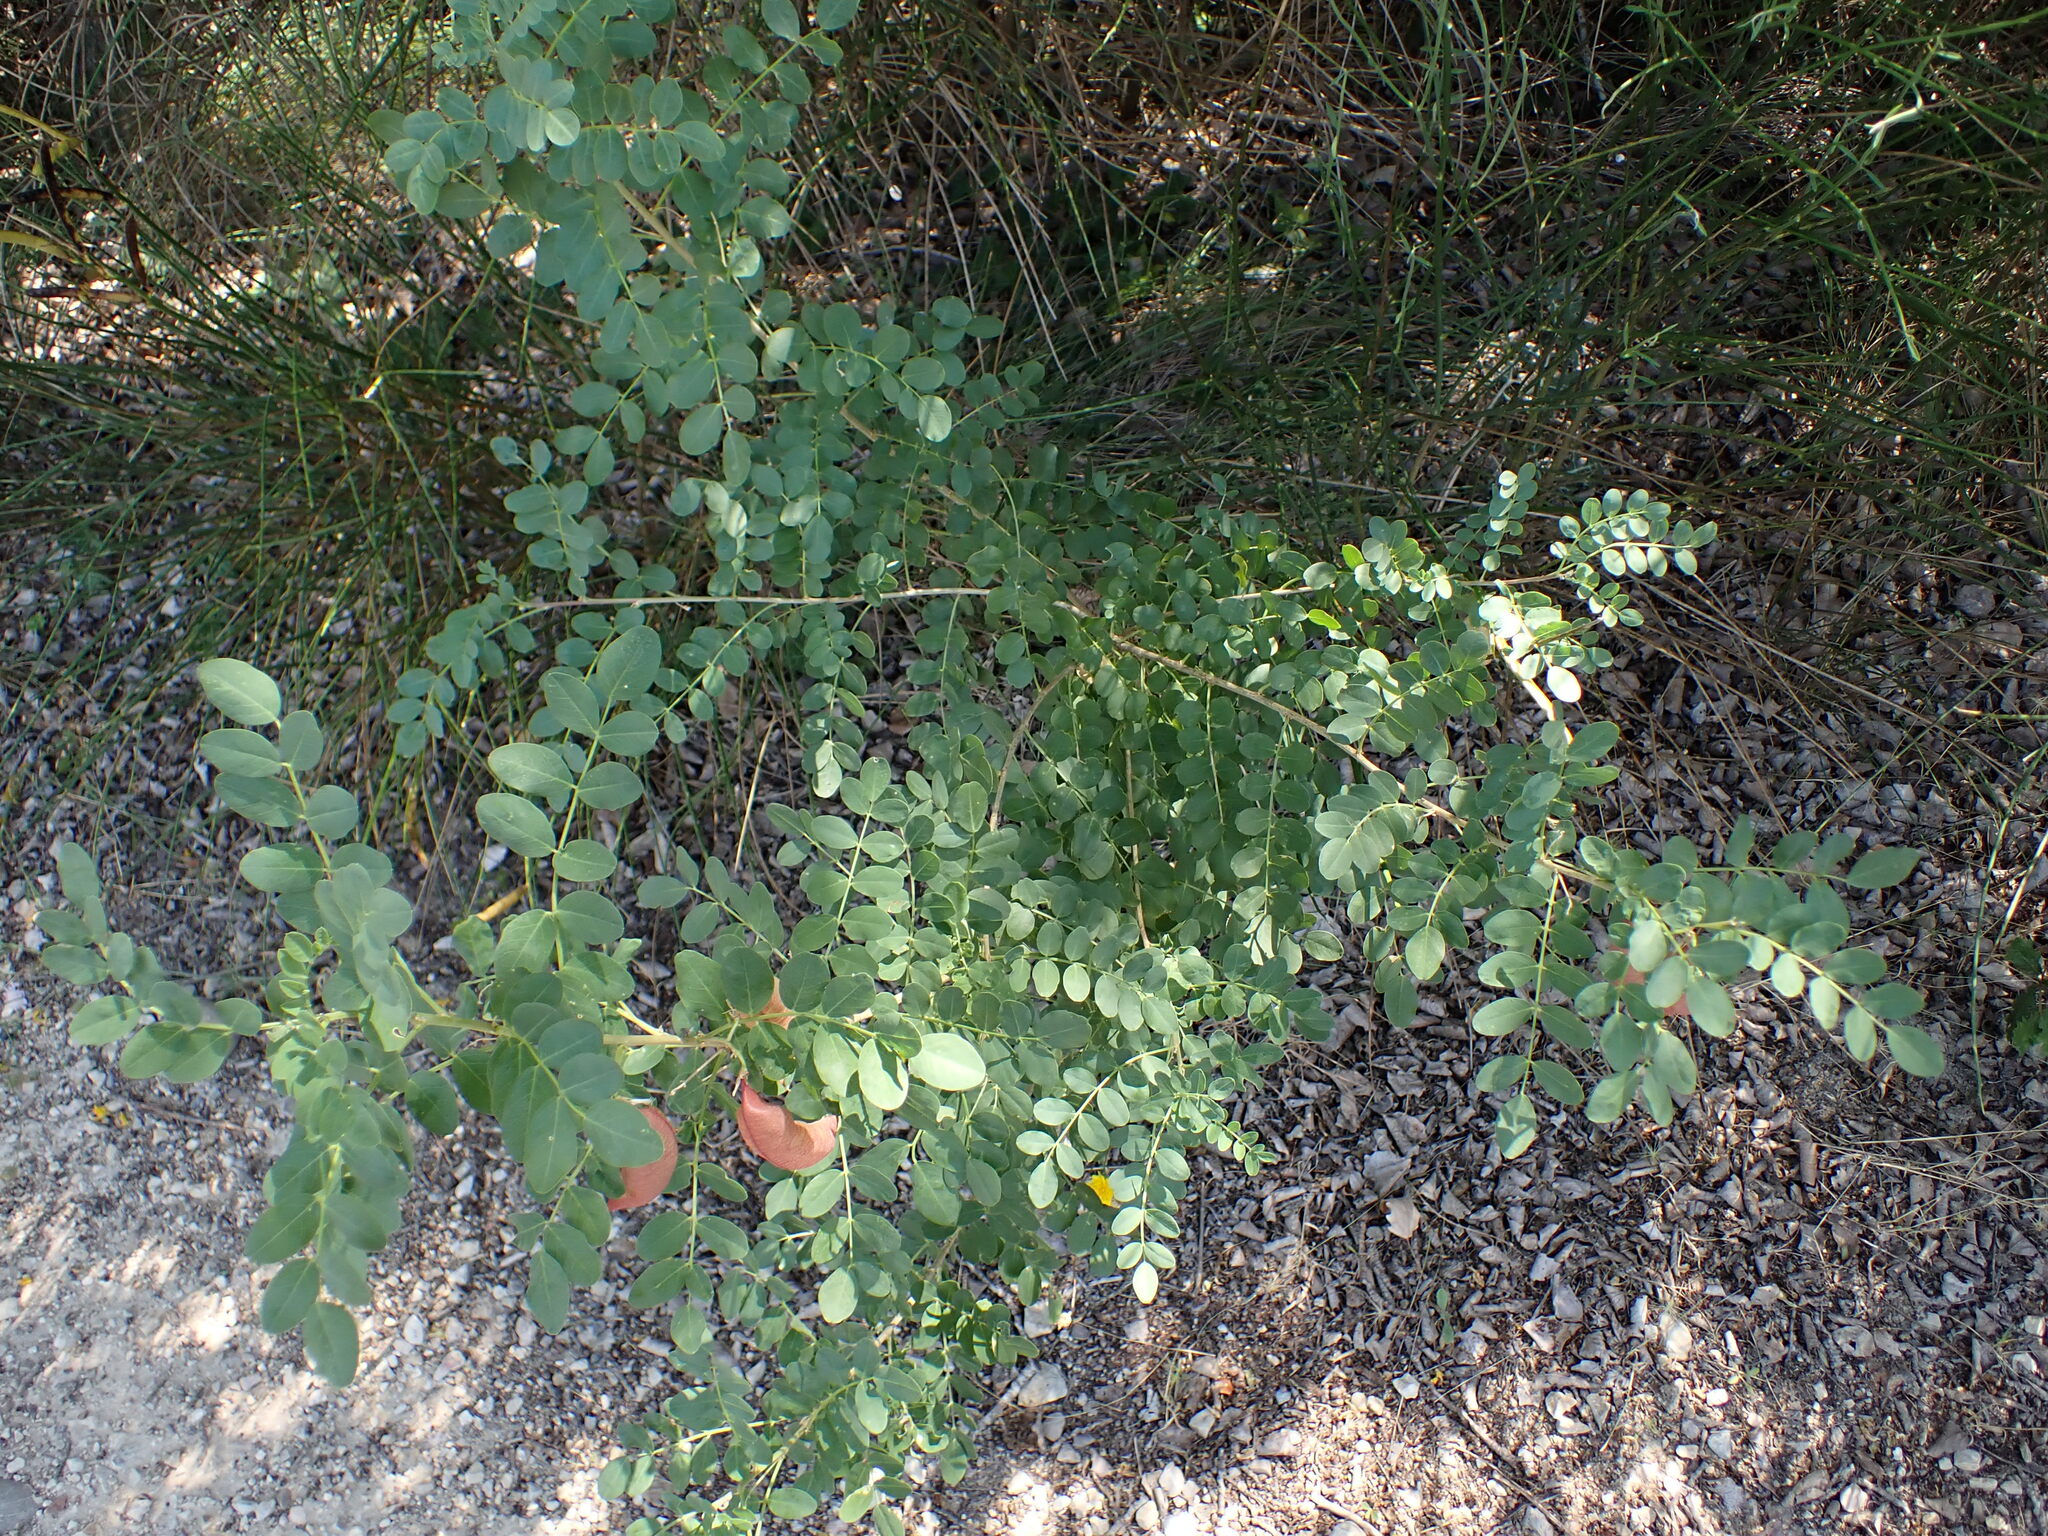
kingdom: Plantae
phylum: Tracheophyta
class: Magnoliopsida
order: Fabales
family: Fabaceae
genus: Colutea
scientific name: Colutea arborescens
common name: Bladder-senna
